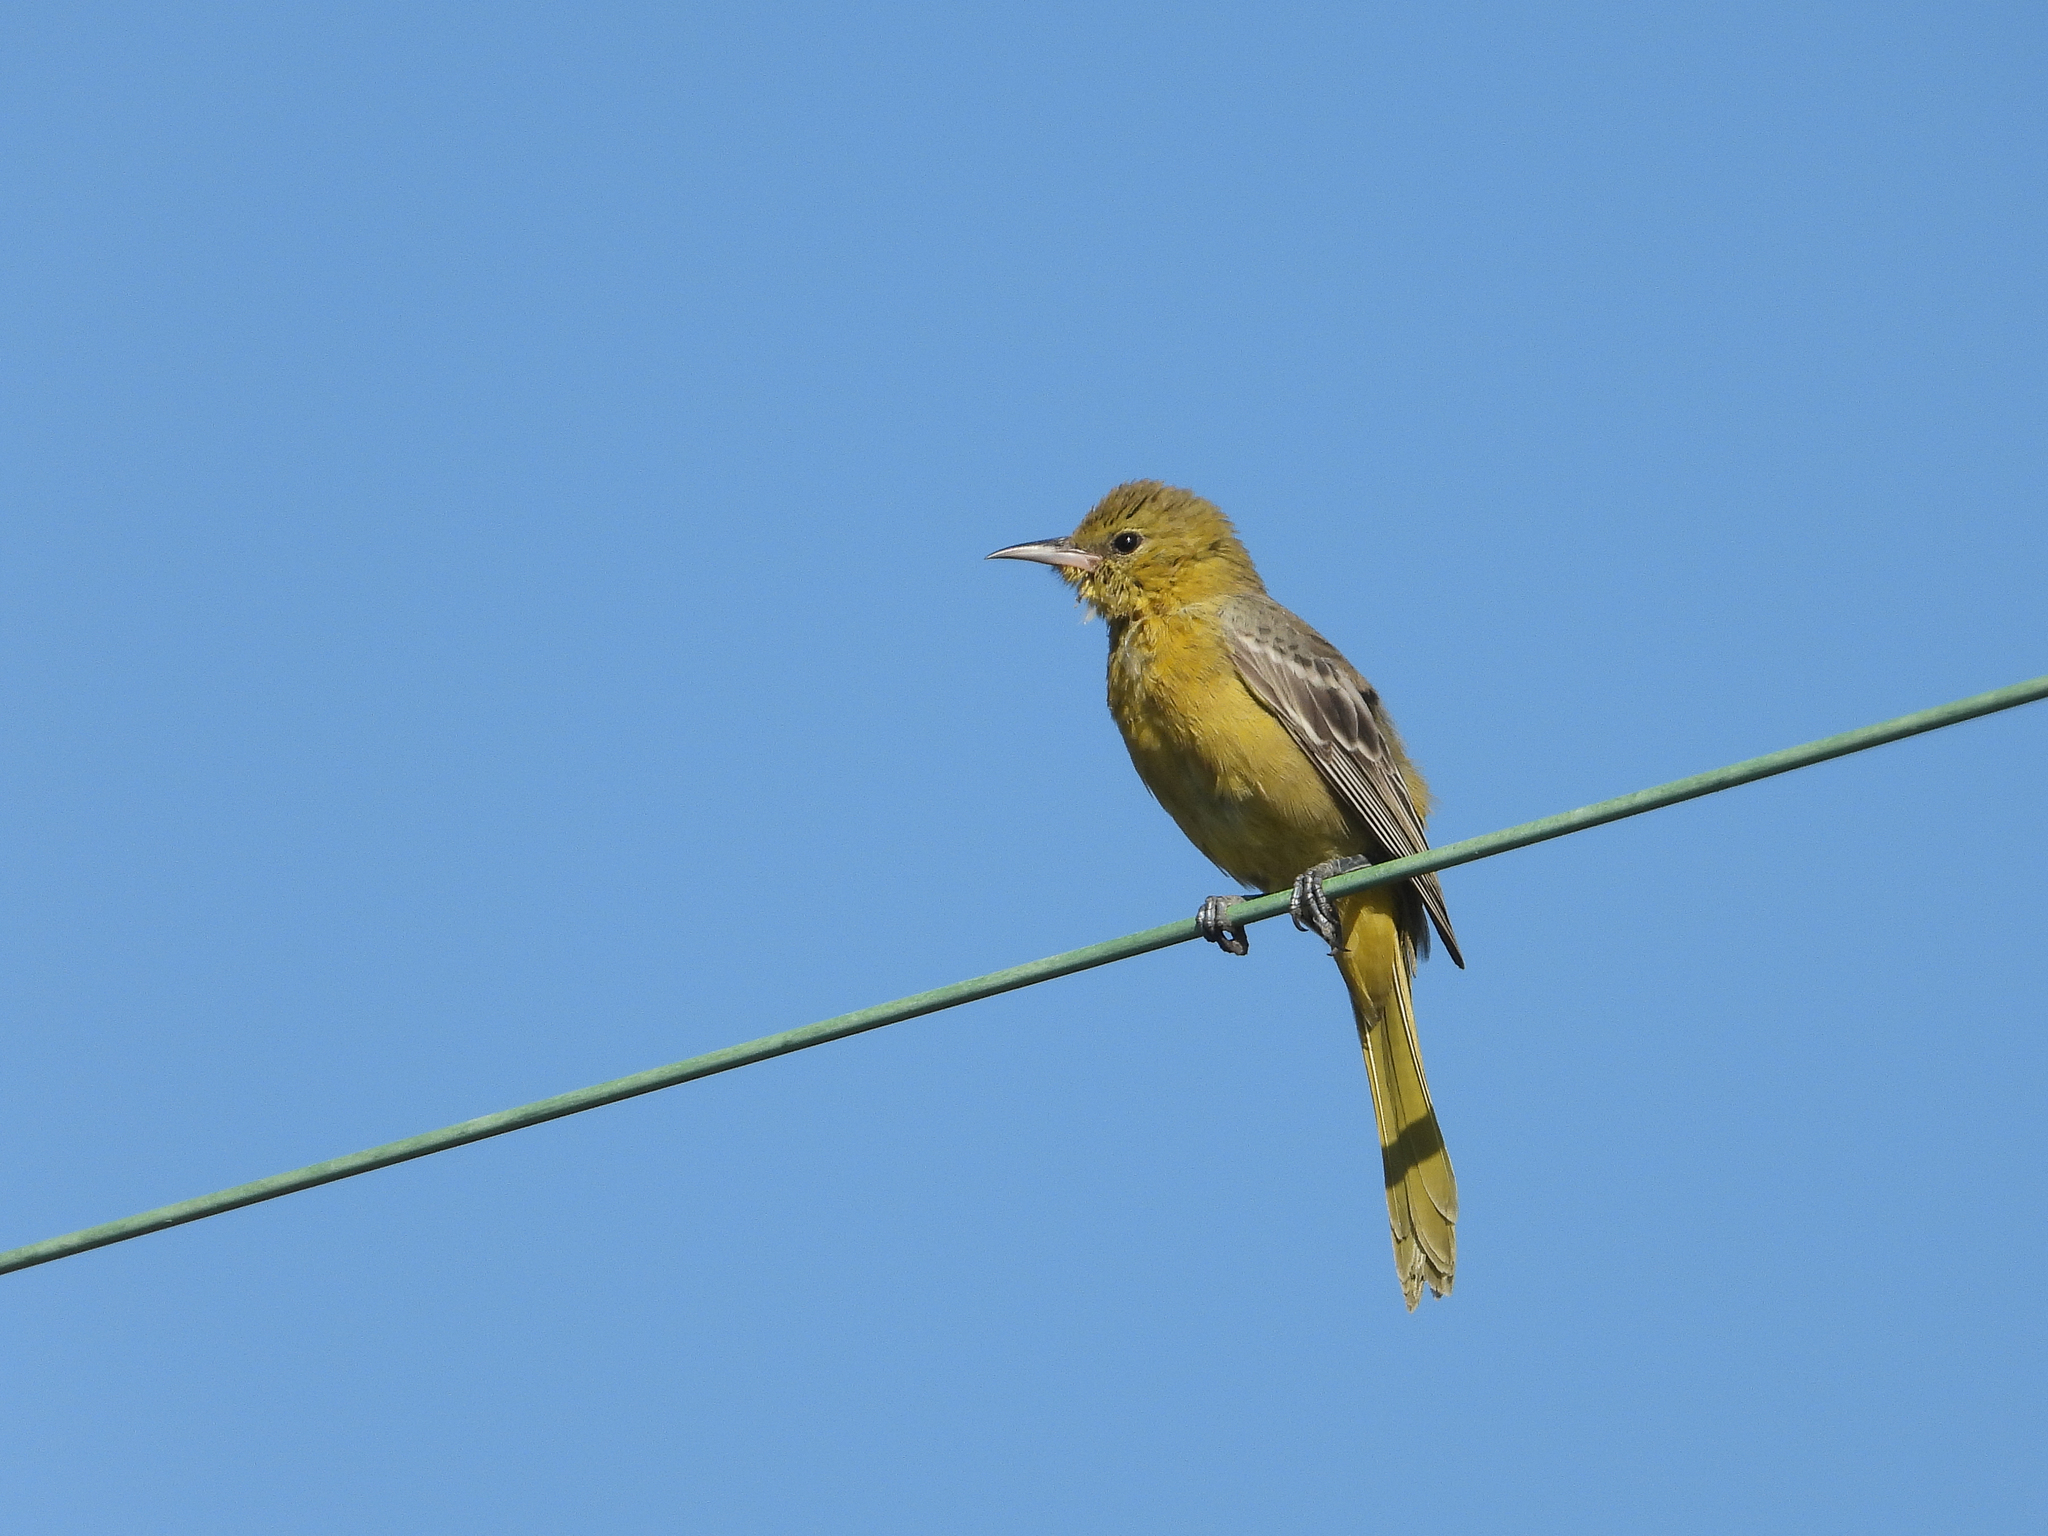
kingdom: Animalia
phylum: Chordata
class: Aves
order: Passeriformes
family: Icteridae
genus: Icterus
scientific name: Icterus cucullatus
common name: Hooded oriole
